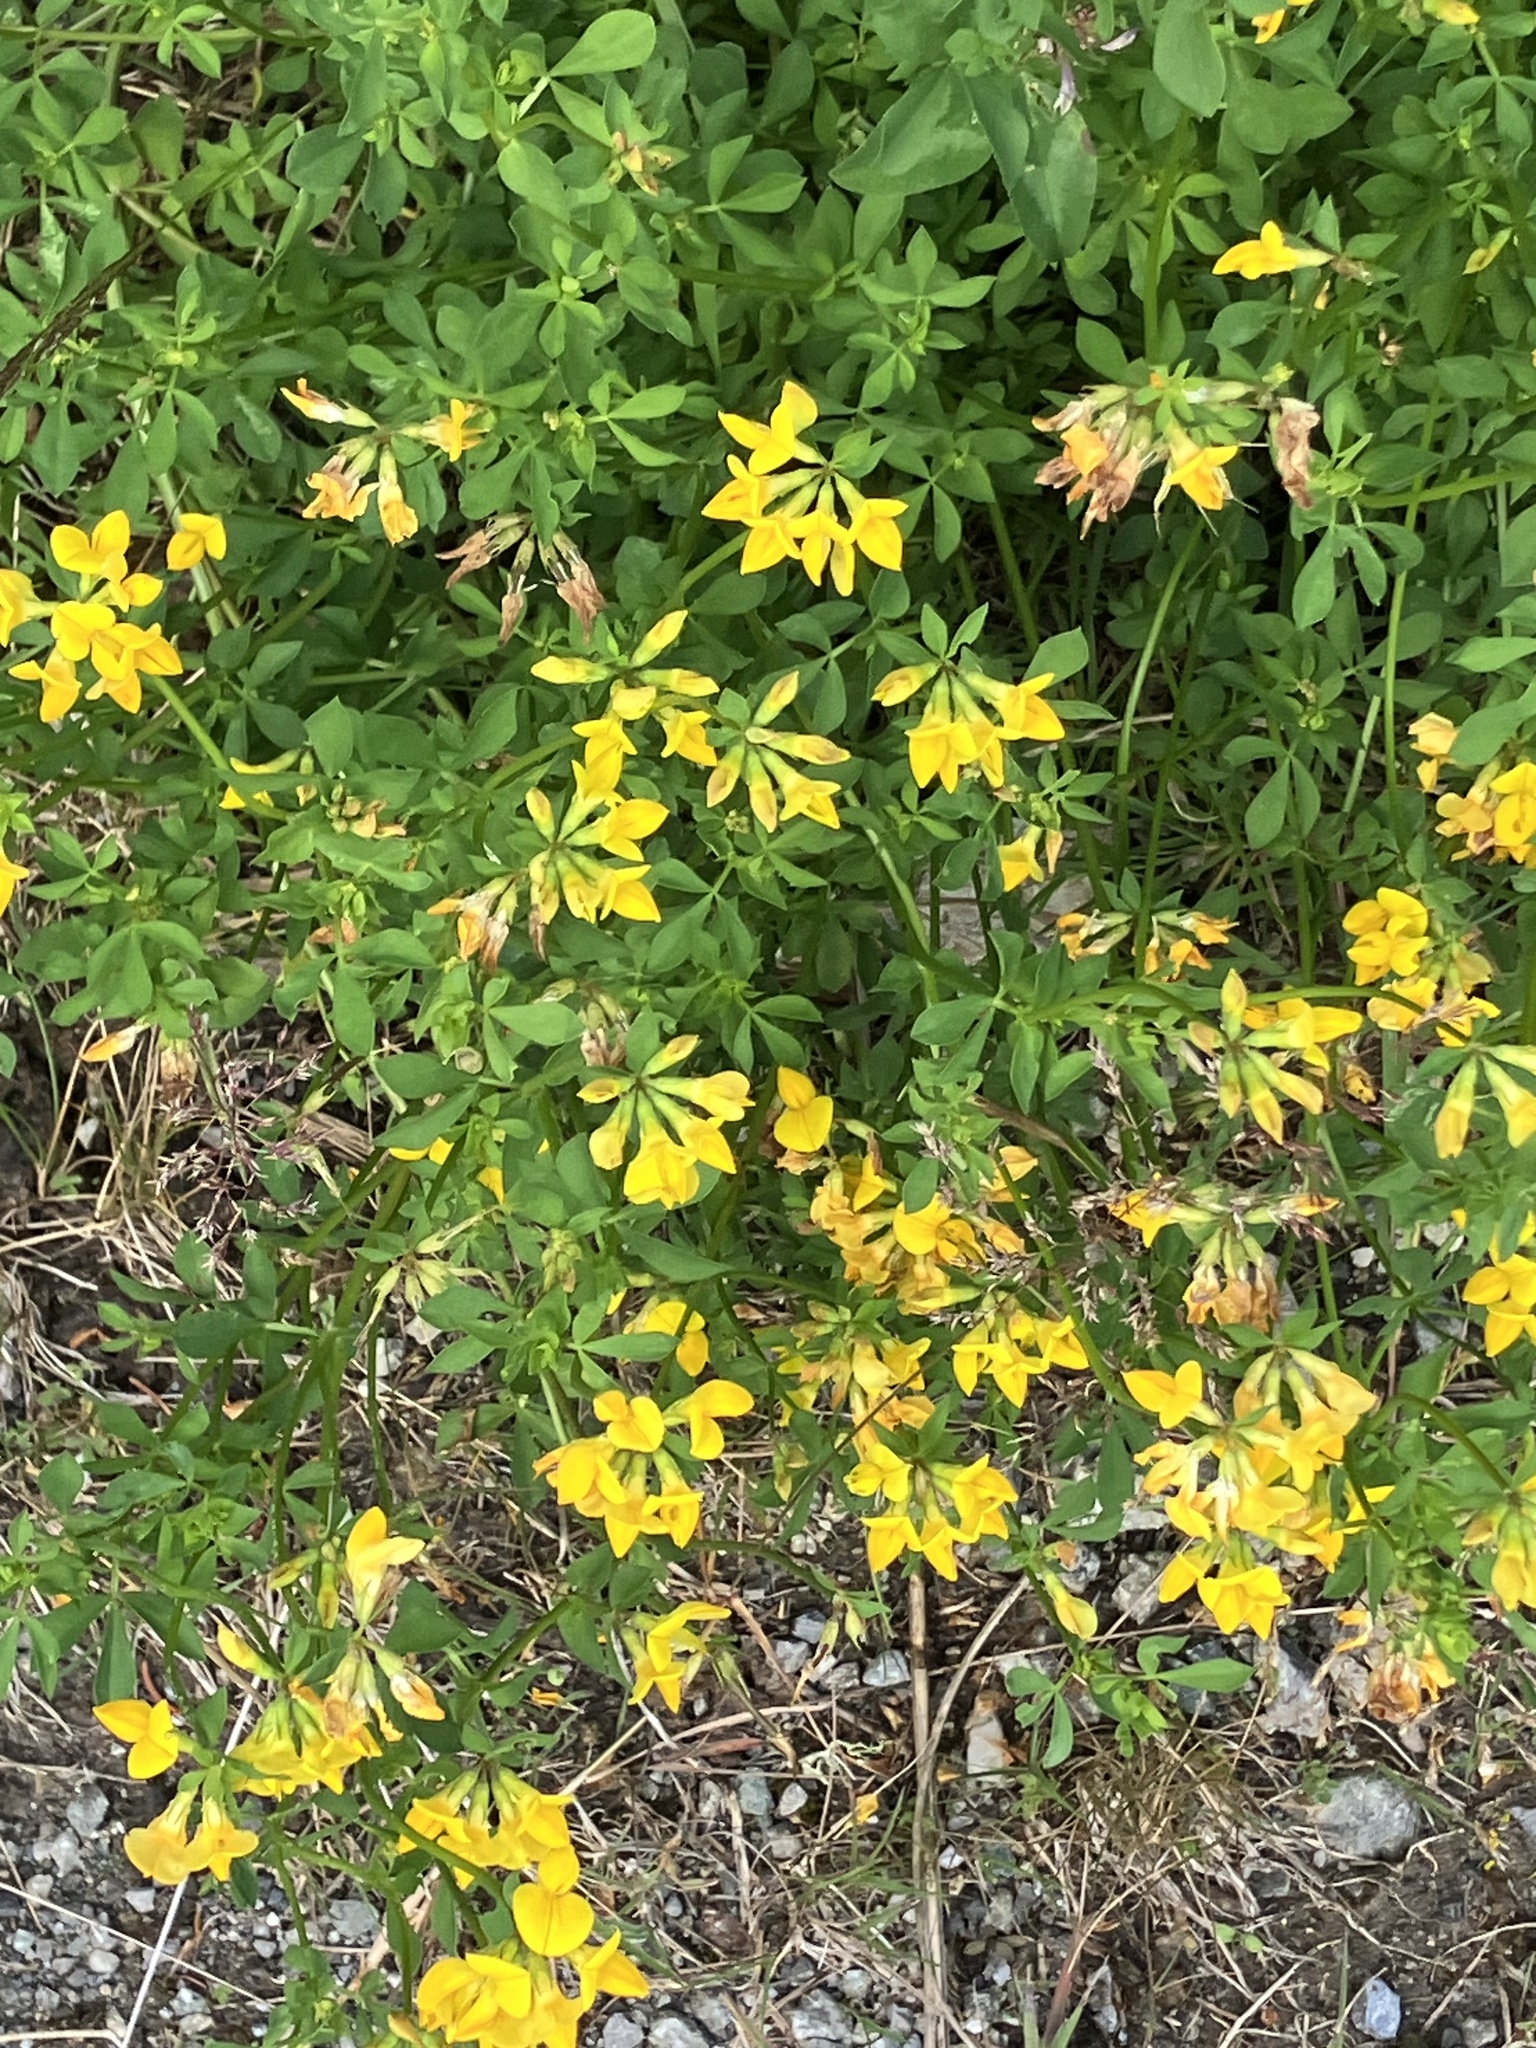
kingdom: Plantae
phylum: Tracheophyta
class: Magnoliopsida
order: Fabales
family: Fabaceae
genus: Lotus
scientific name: Lotus corniculatus
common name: Common bird's-foot-trefoil
